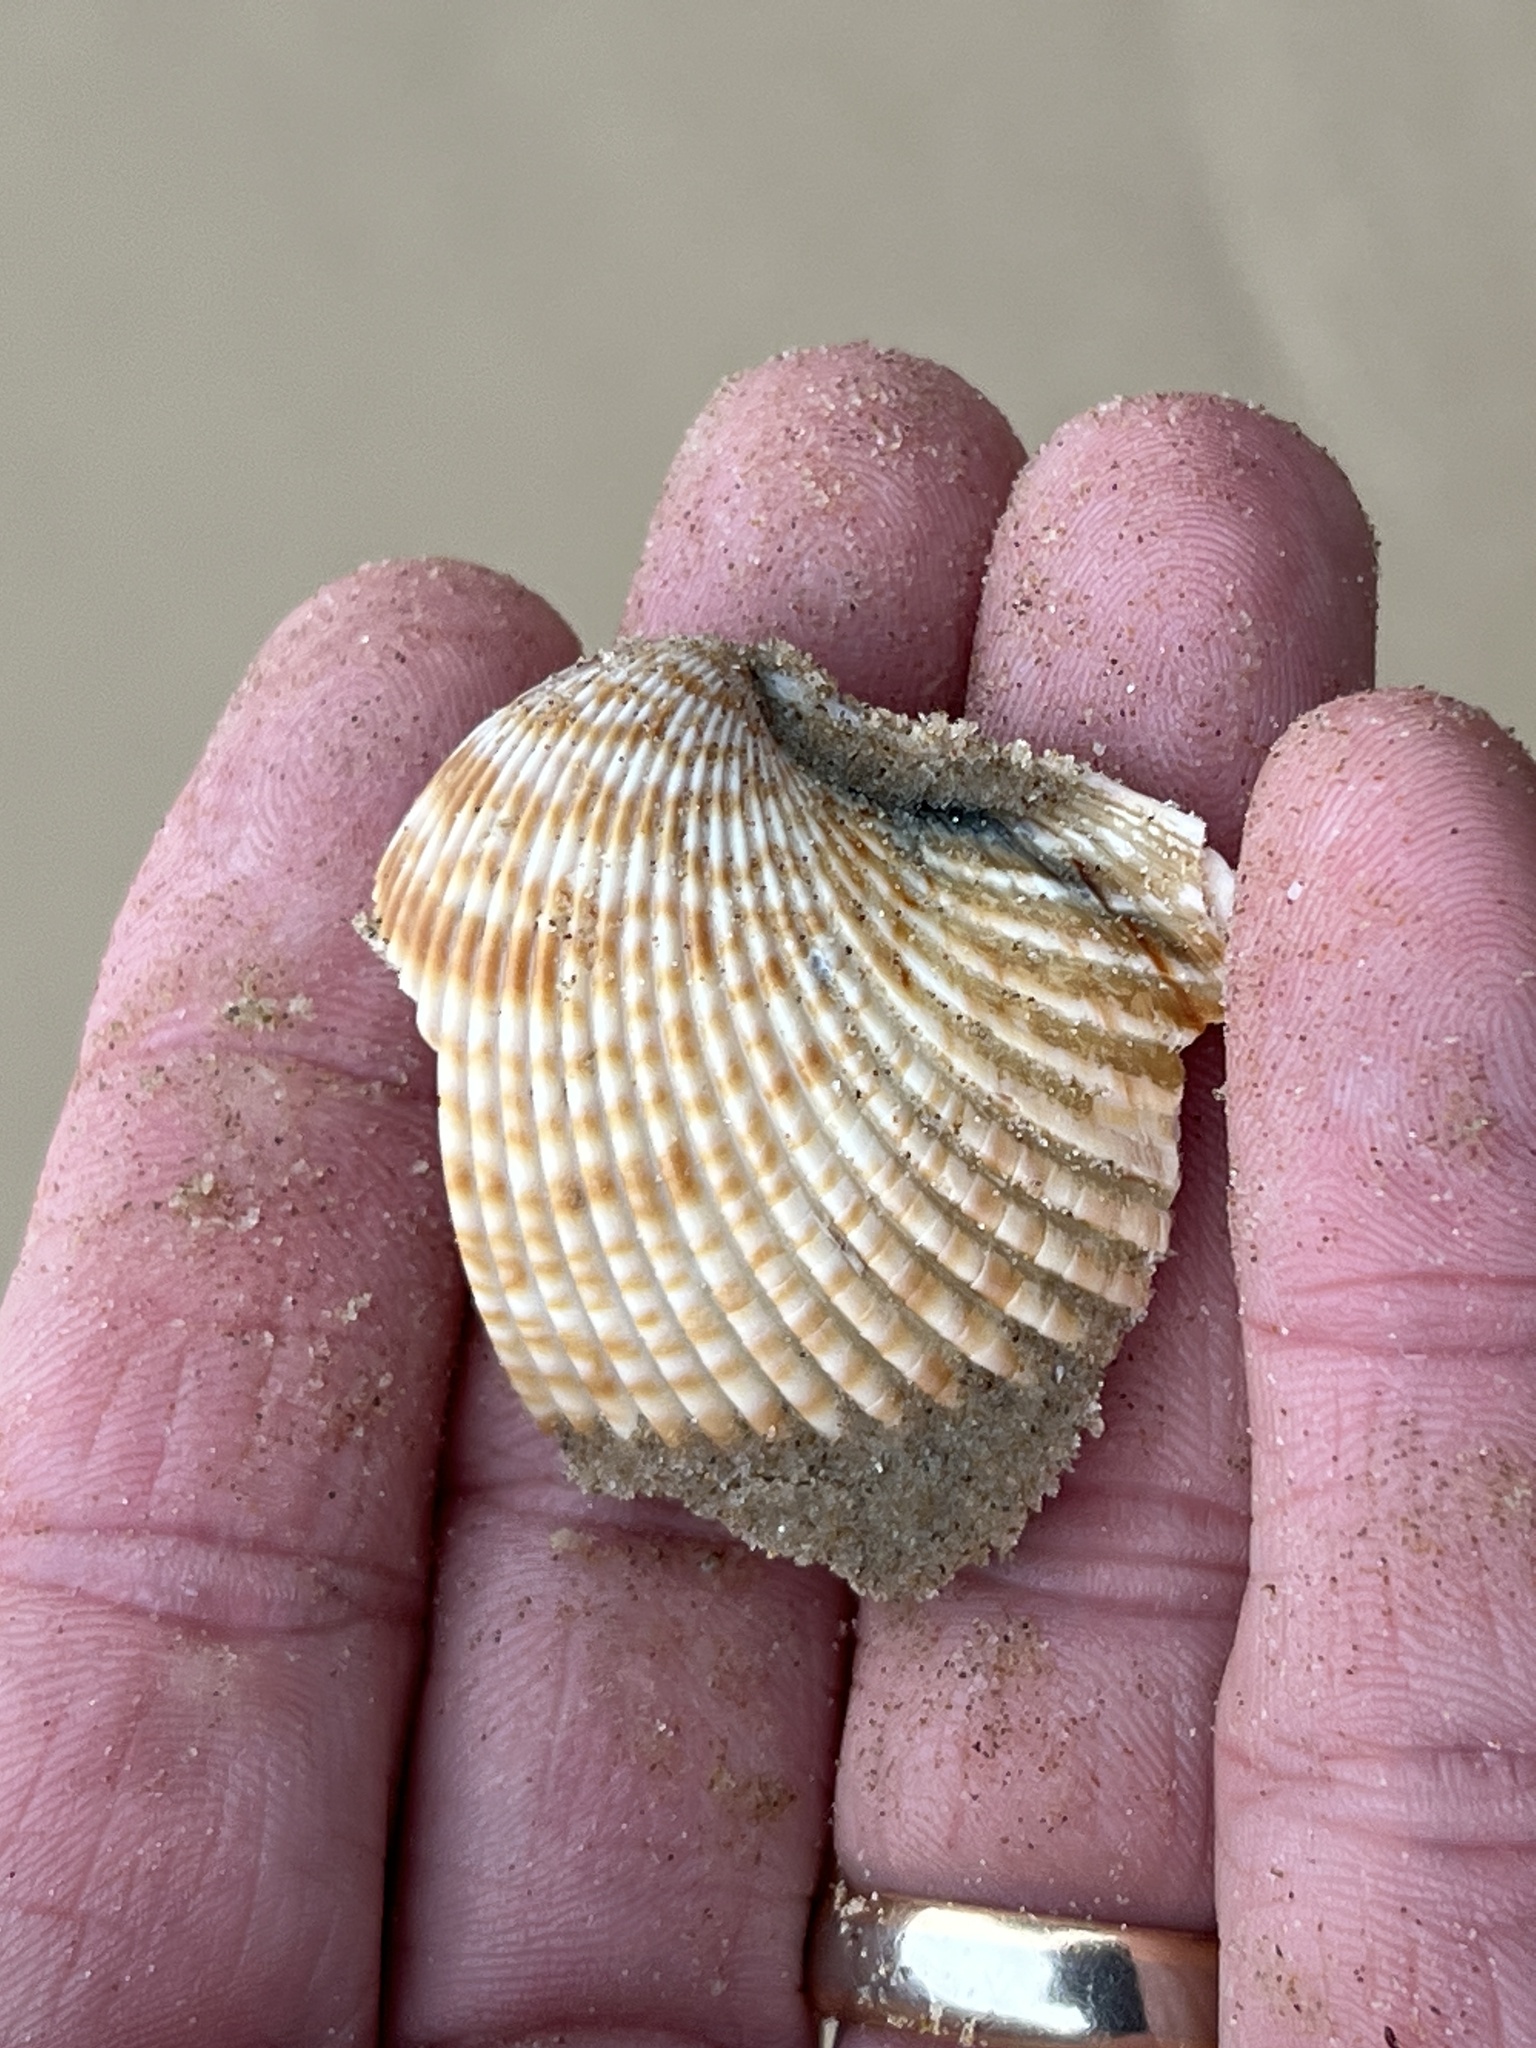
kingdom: Animalia
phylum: Mollusca
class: Bivalvia
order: Cardiida
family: Cardiidae
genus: Dinocardium
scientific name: Dinocardium robustum
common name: Atlantic giant cockle
